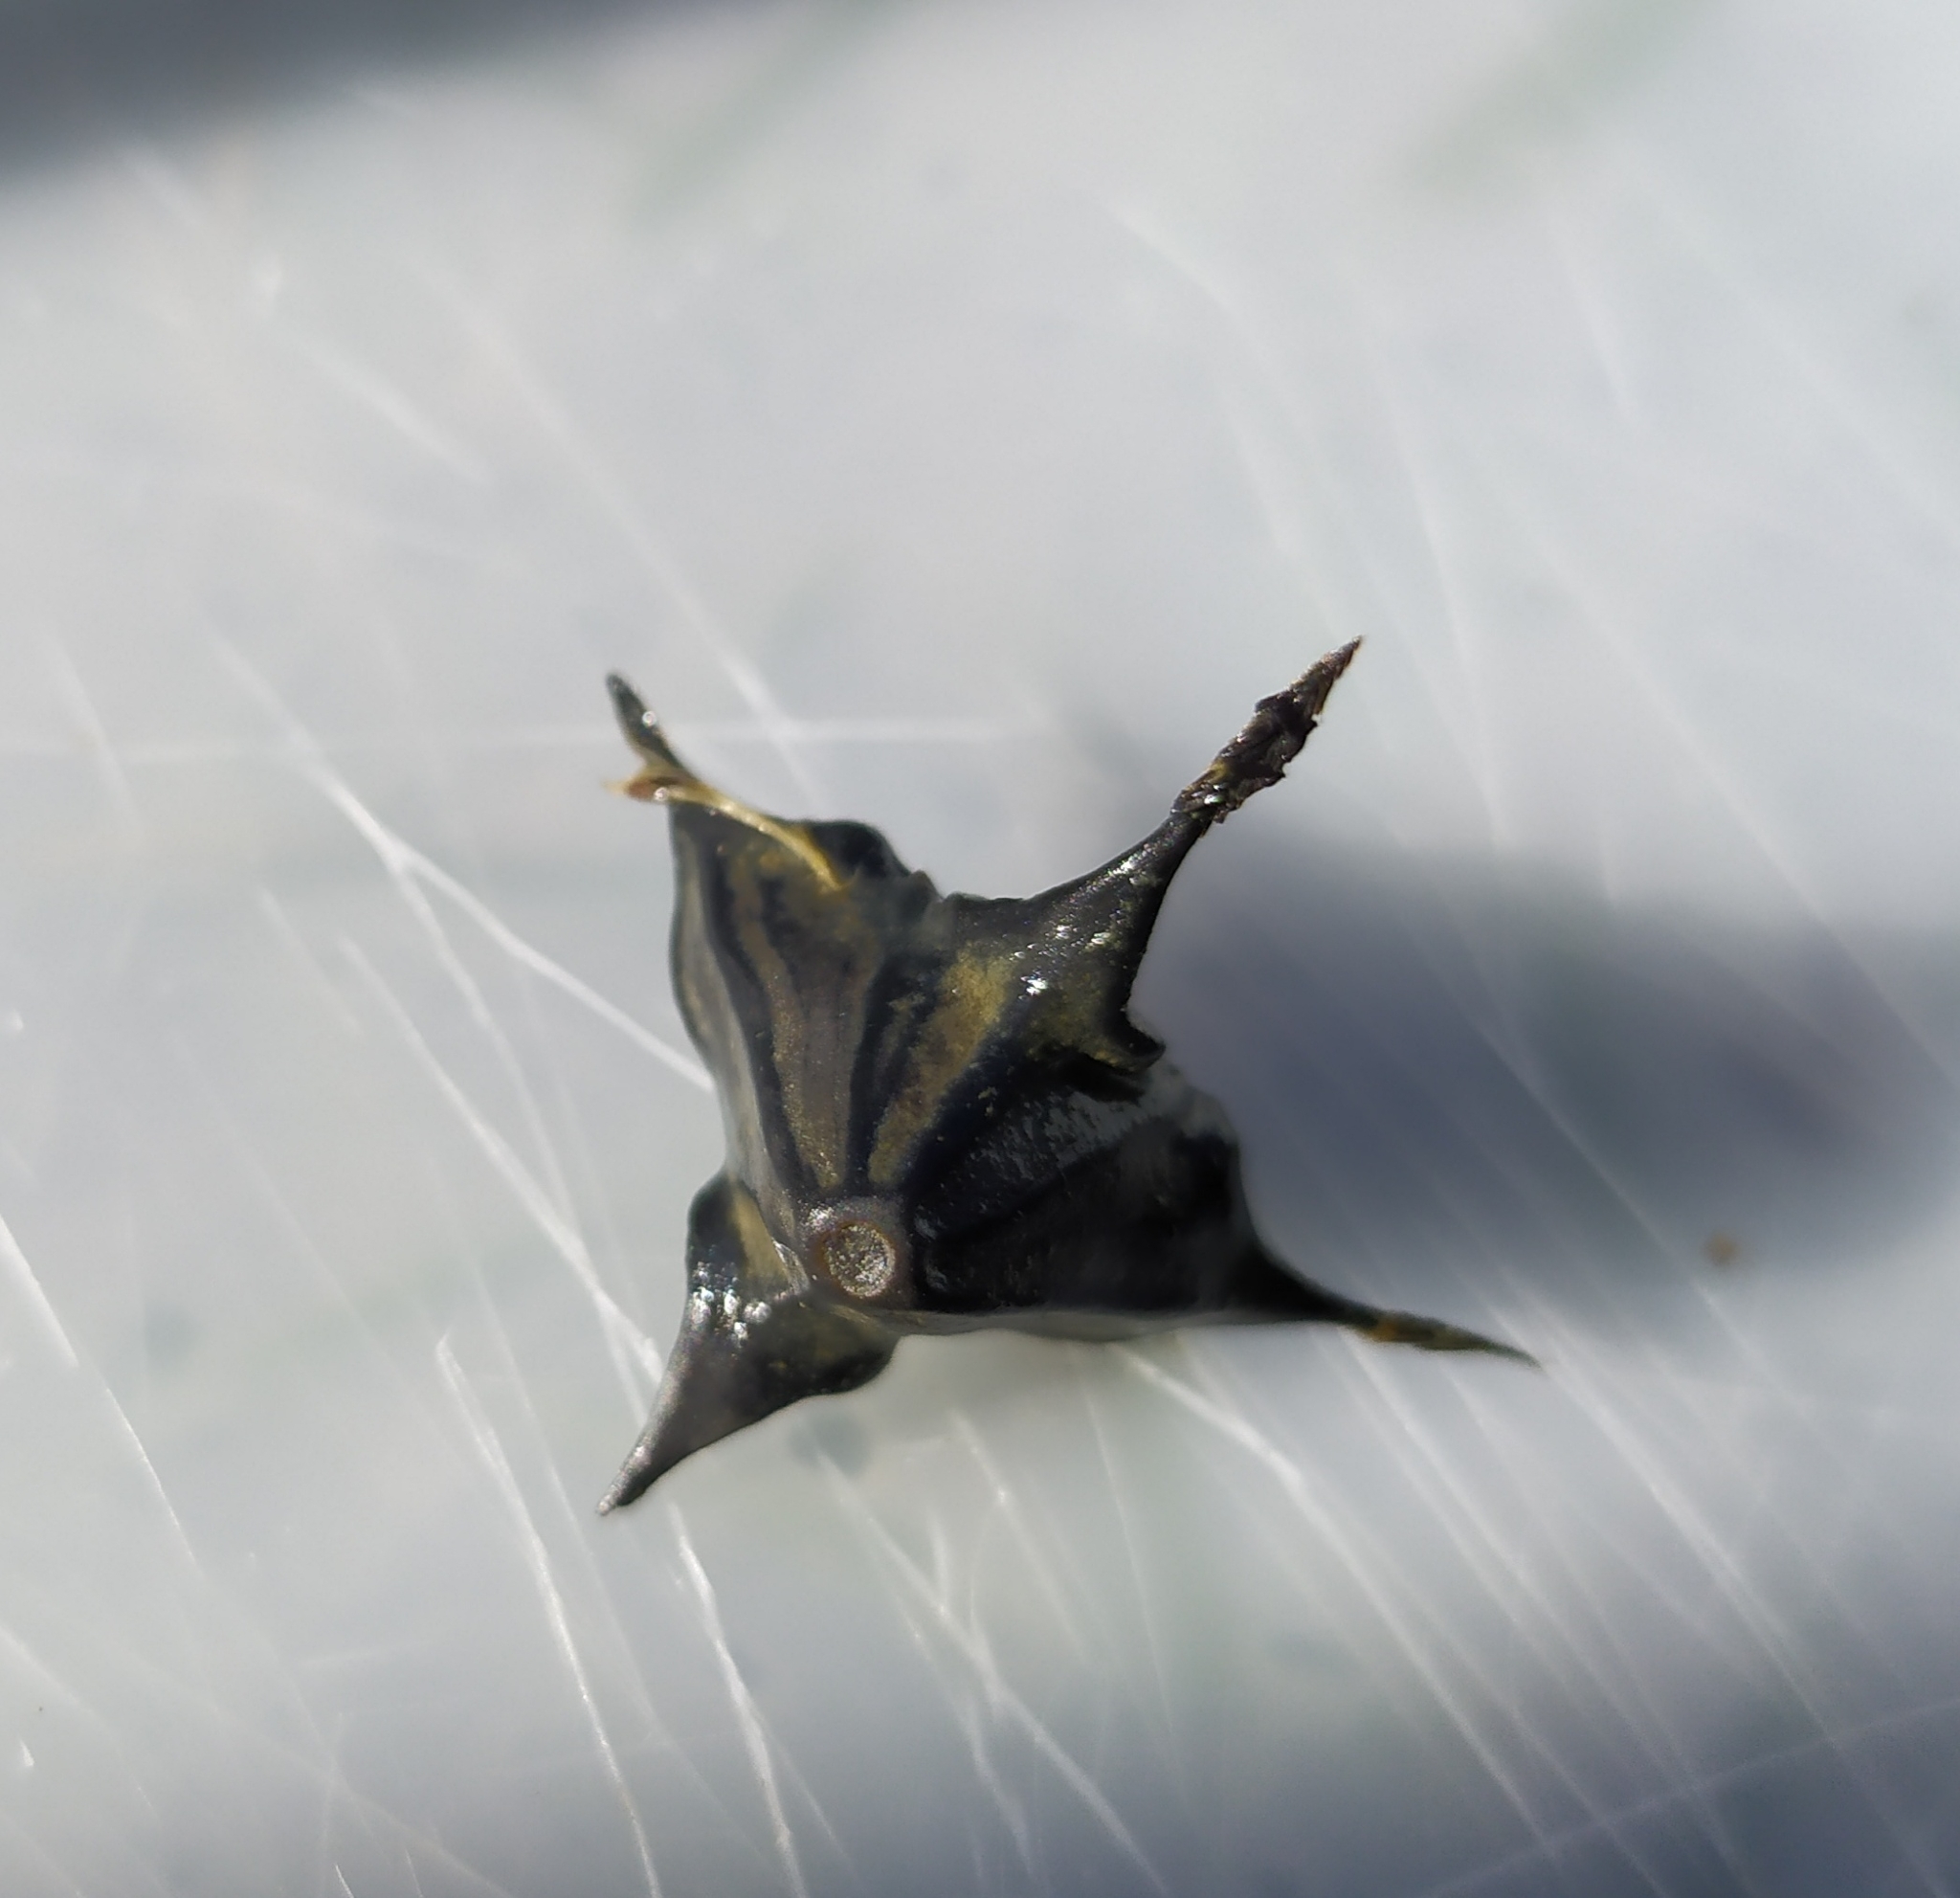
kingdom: Plantae
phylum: Tracheophyta
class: Magnoliopsida
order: Myrtales
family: Lythraceae
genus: Trapa
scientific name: Trapa natans
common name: Water chestnut
